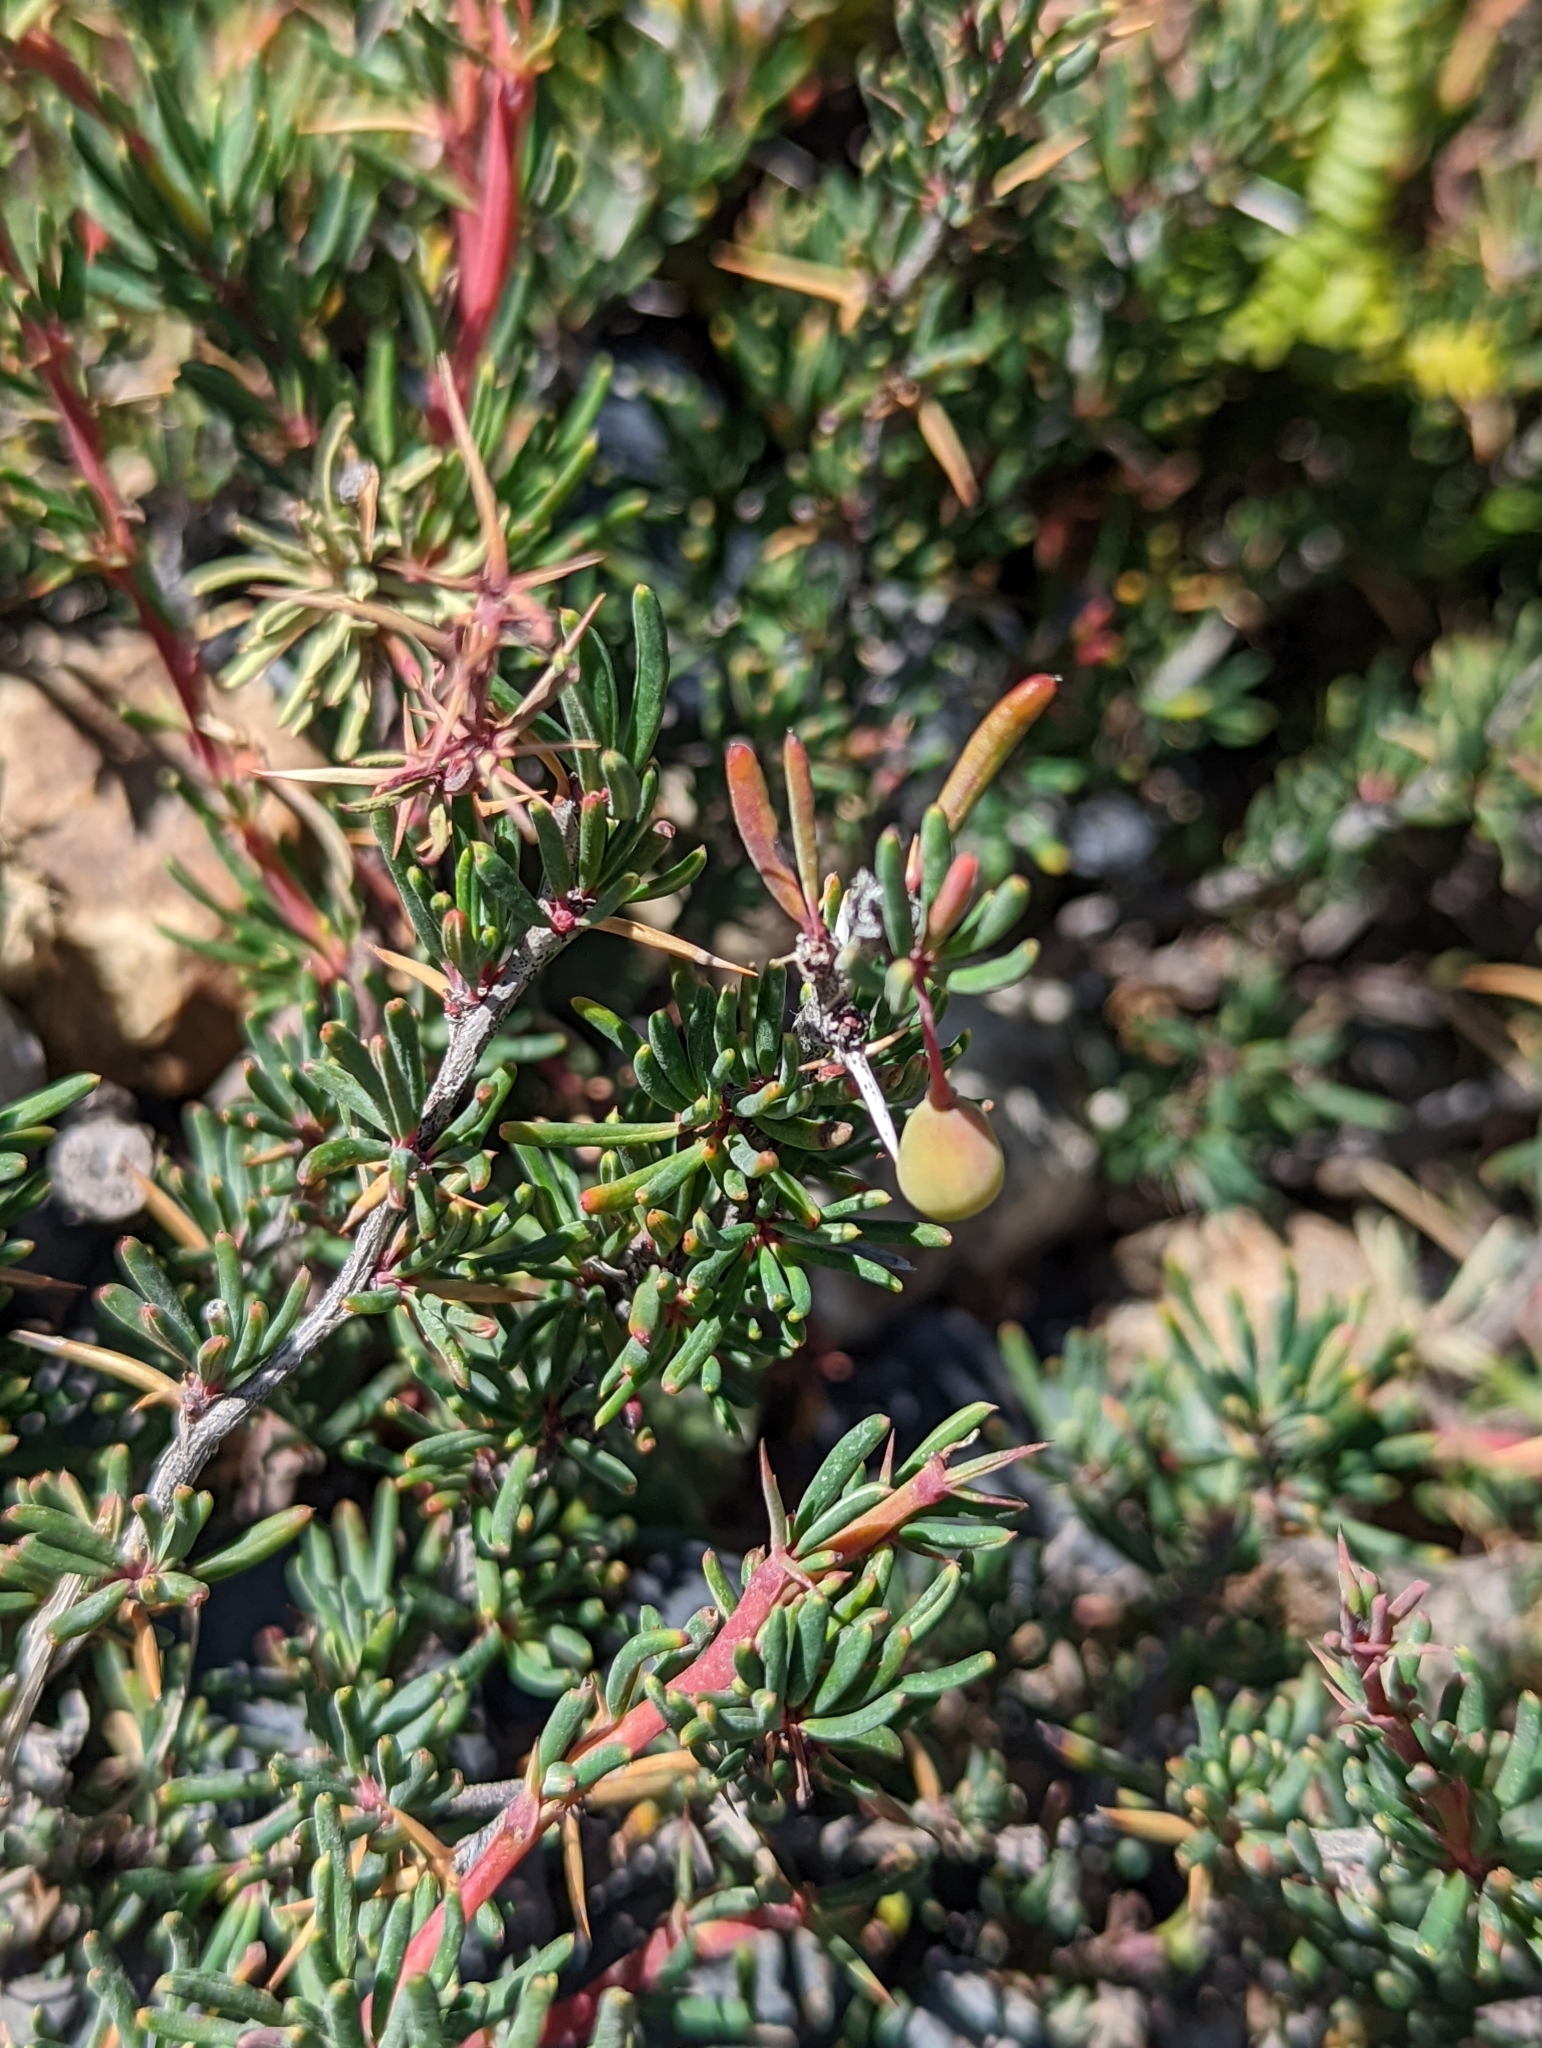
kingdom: Plantae
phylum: Tracheophyta
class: Magnoliopsida
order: Ranunculales
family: Berberidaceae
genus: Berberis
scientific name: Berberis empetrifolia
